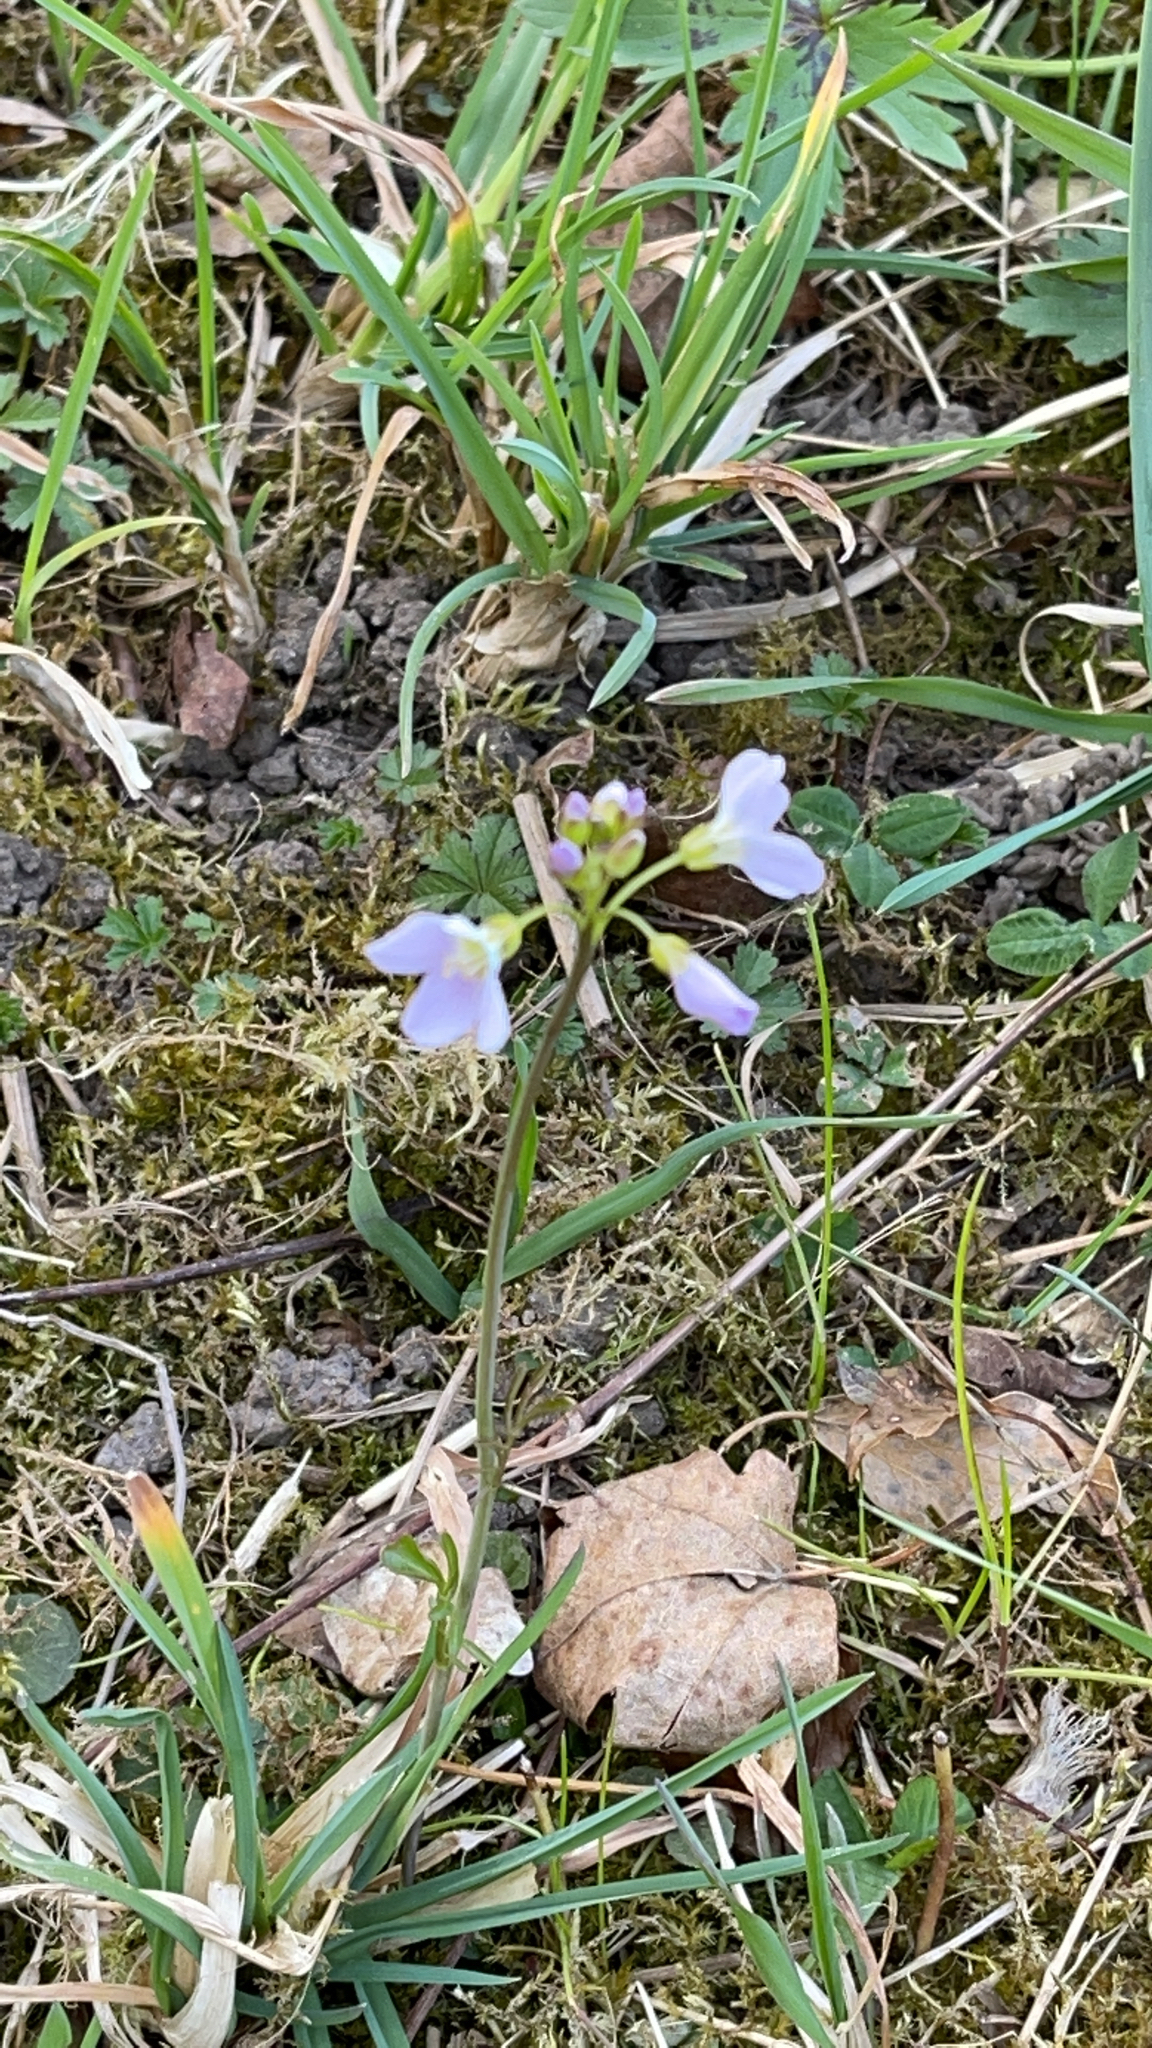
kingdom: Plantae
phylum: Tracheophyta
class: Magnoliopsida
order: Brassicales
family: Brassicaceae
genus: Cardamine
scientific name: Cardamine pratensis
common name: Cuckoo flower
